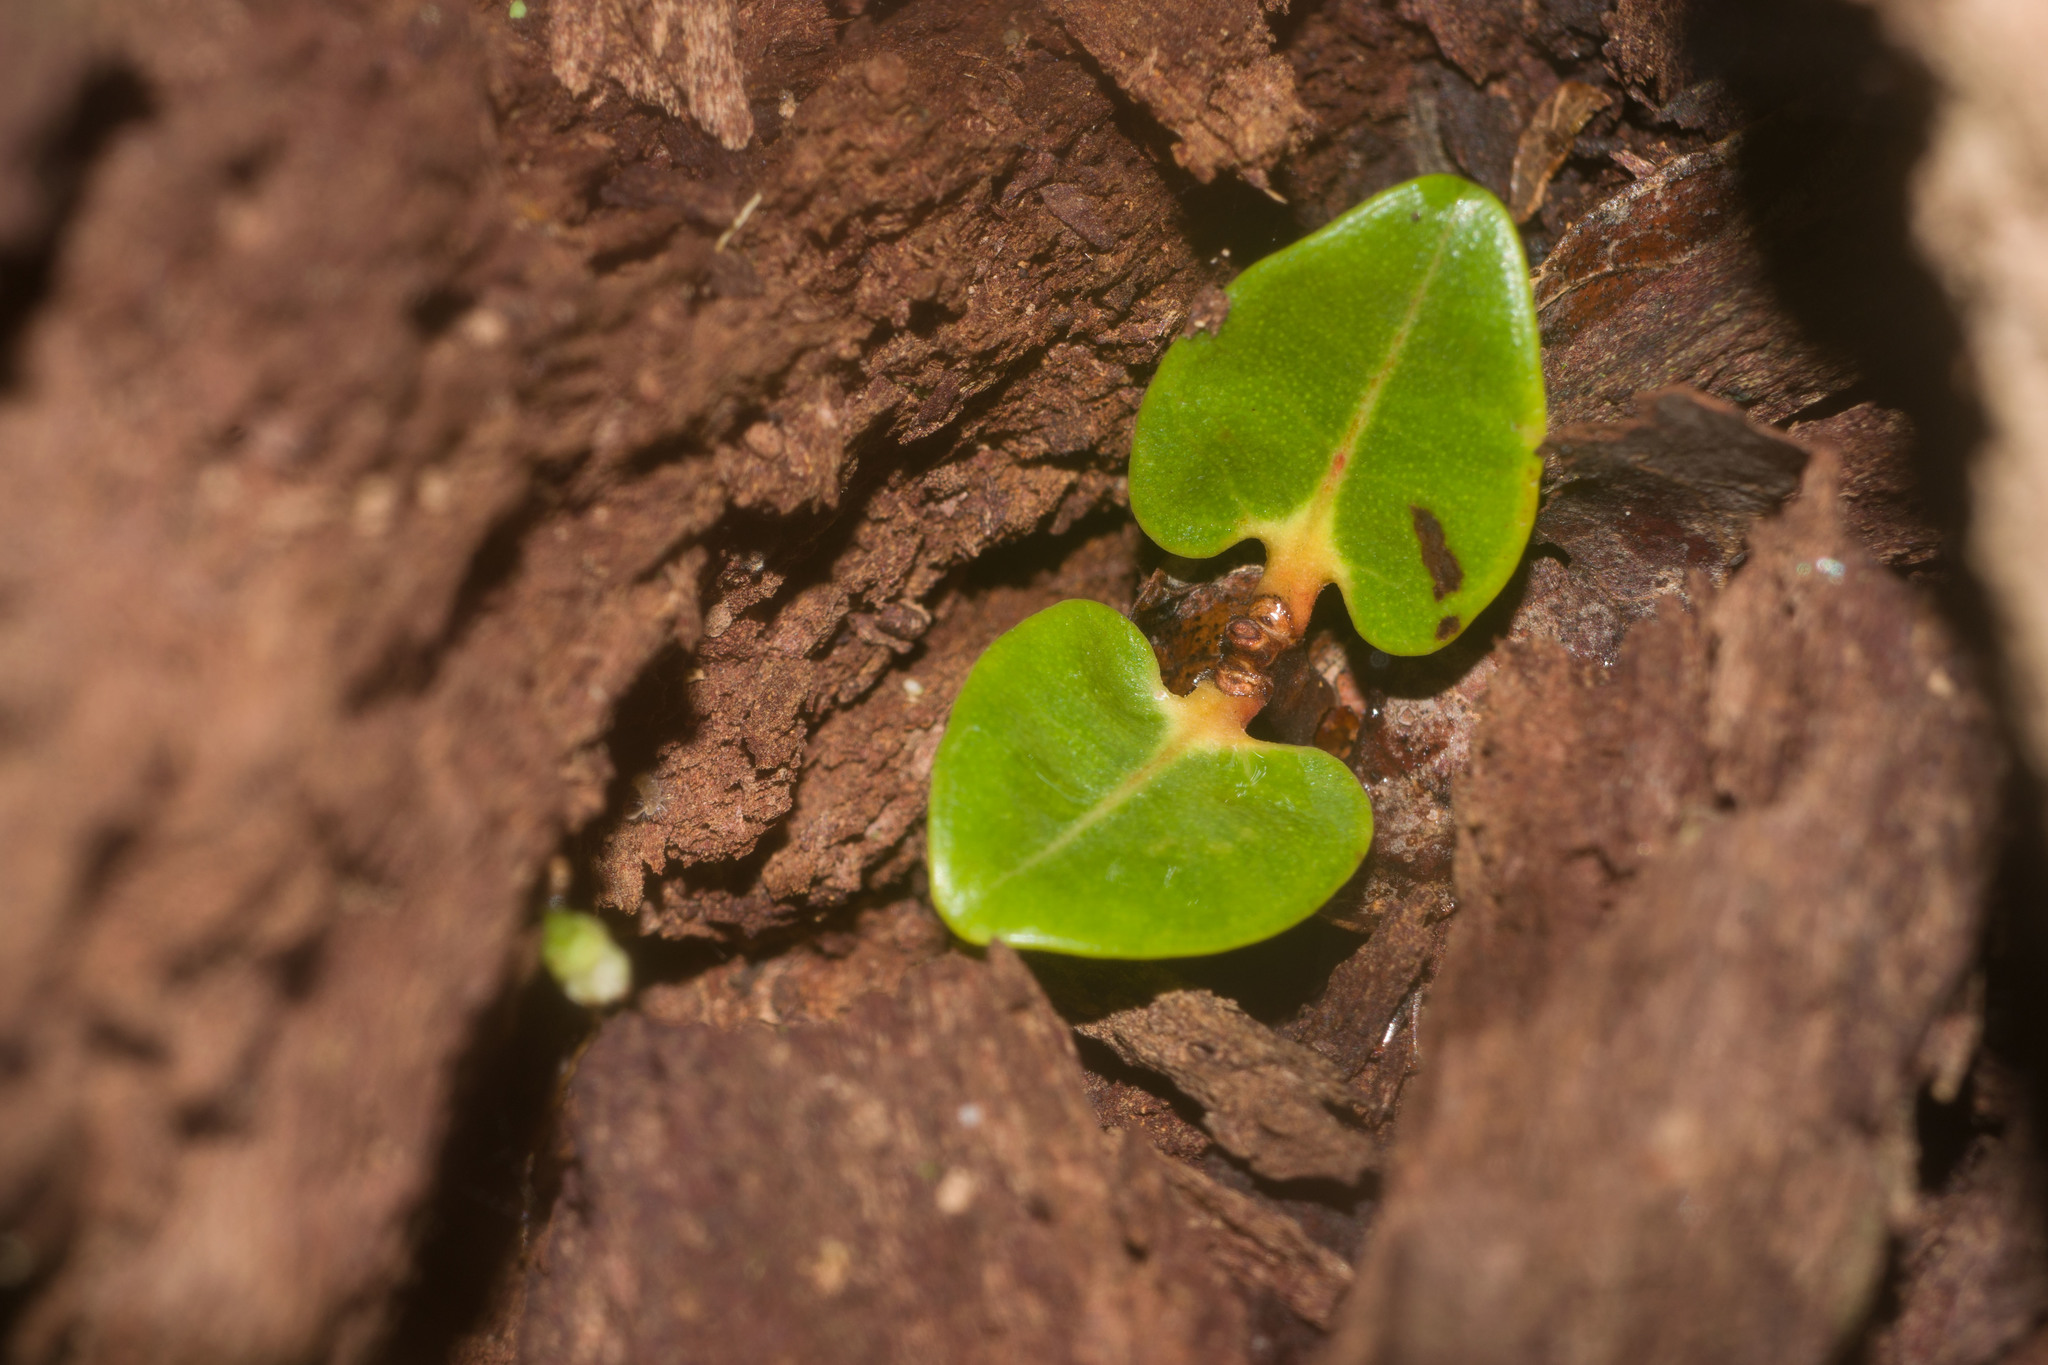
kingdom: Plantae
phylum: Tracheophyta
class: Magnoliopsida
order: Myrtales
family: Myrtaceae
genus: Metrosideros
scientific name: Metrosideros polymorpha
